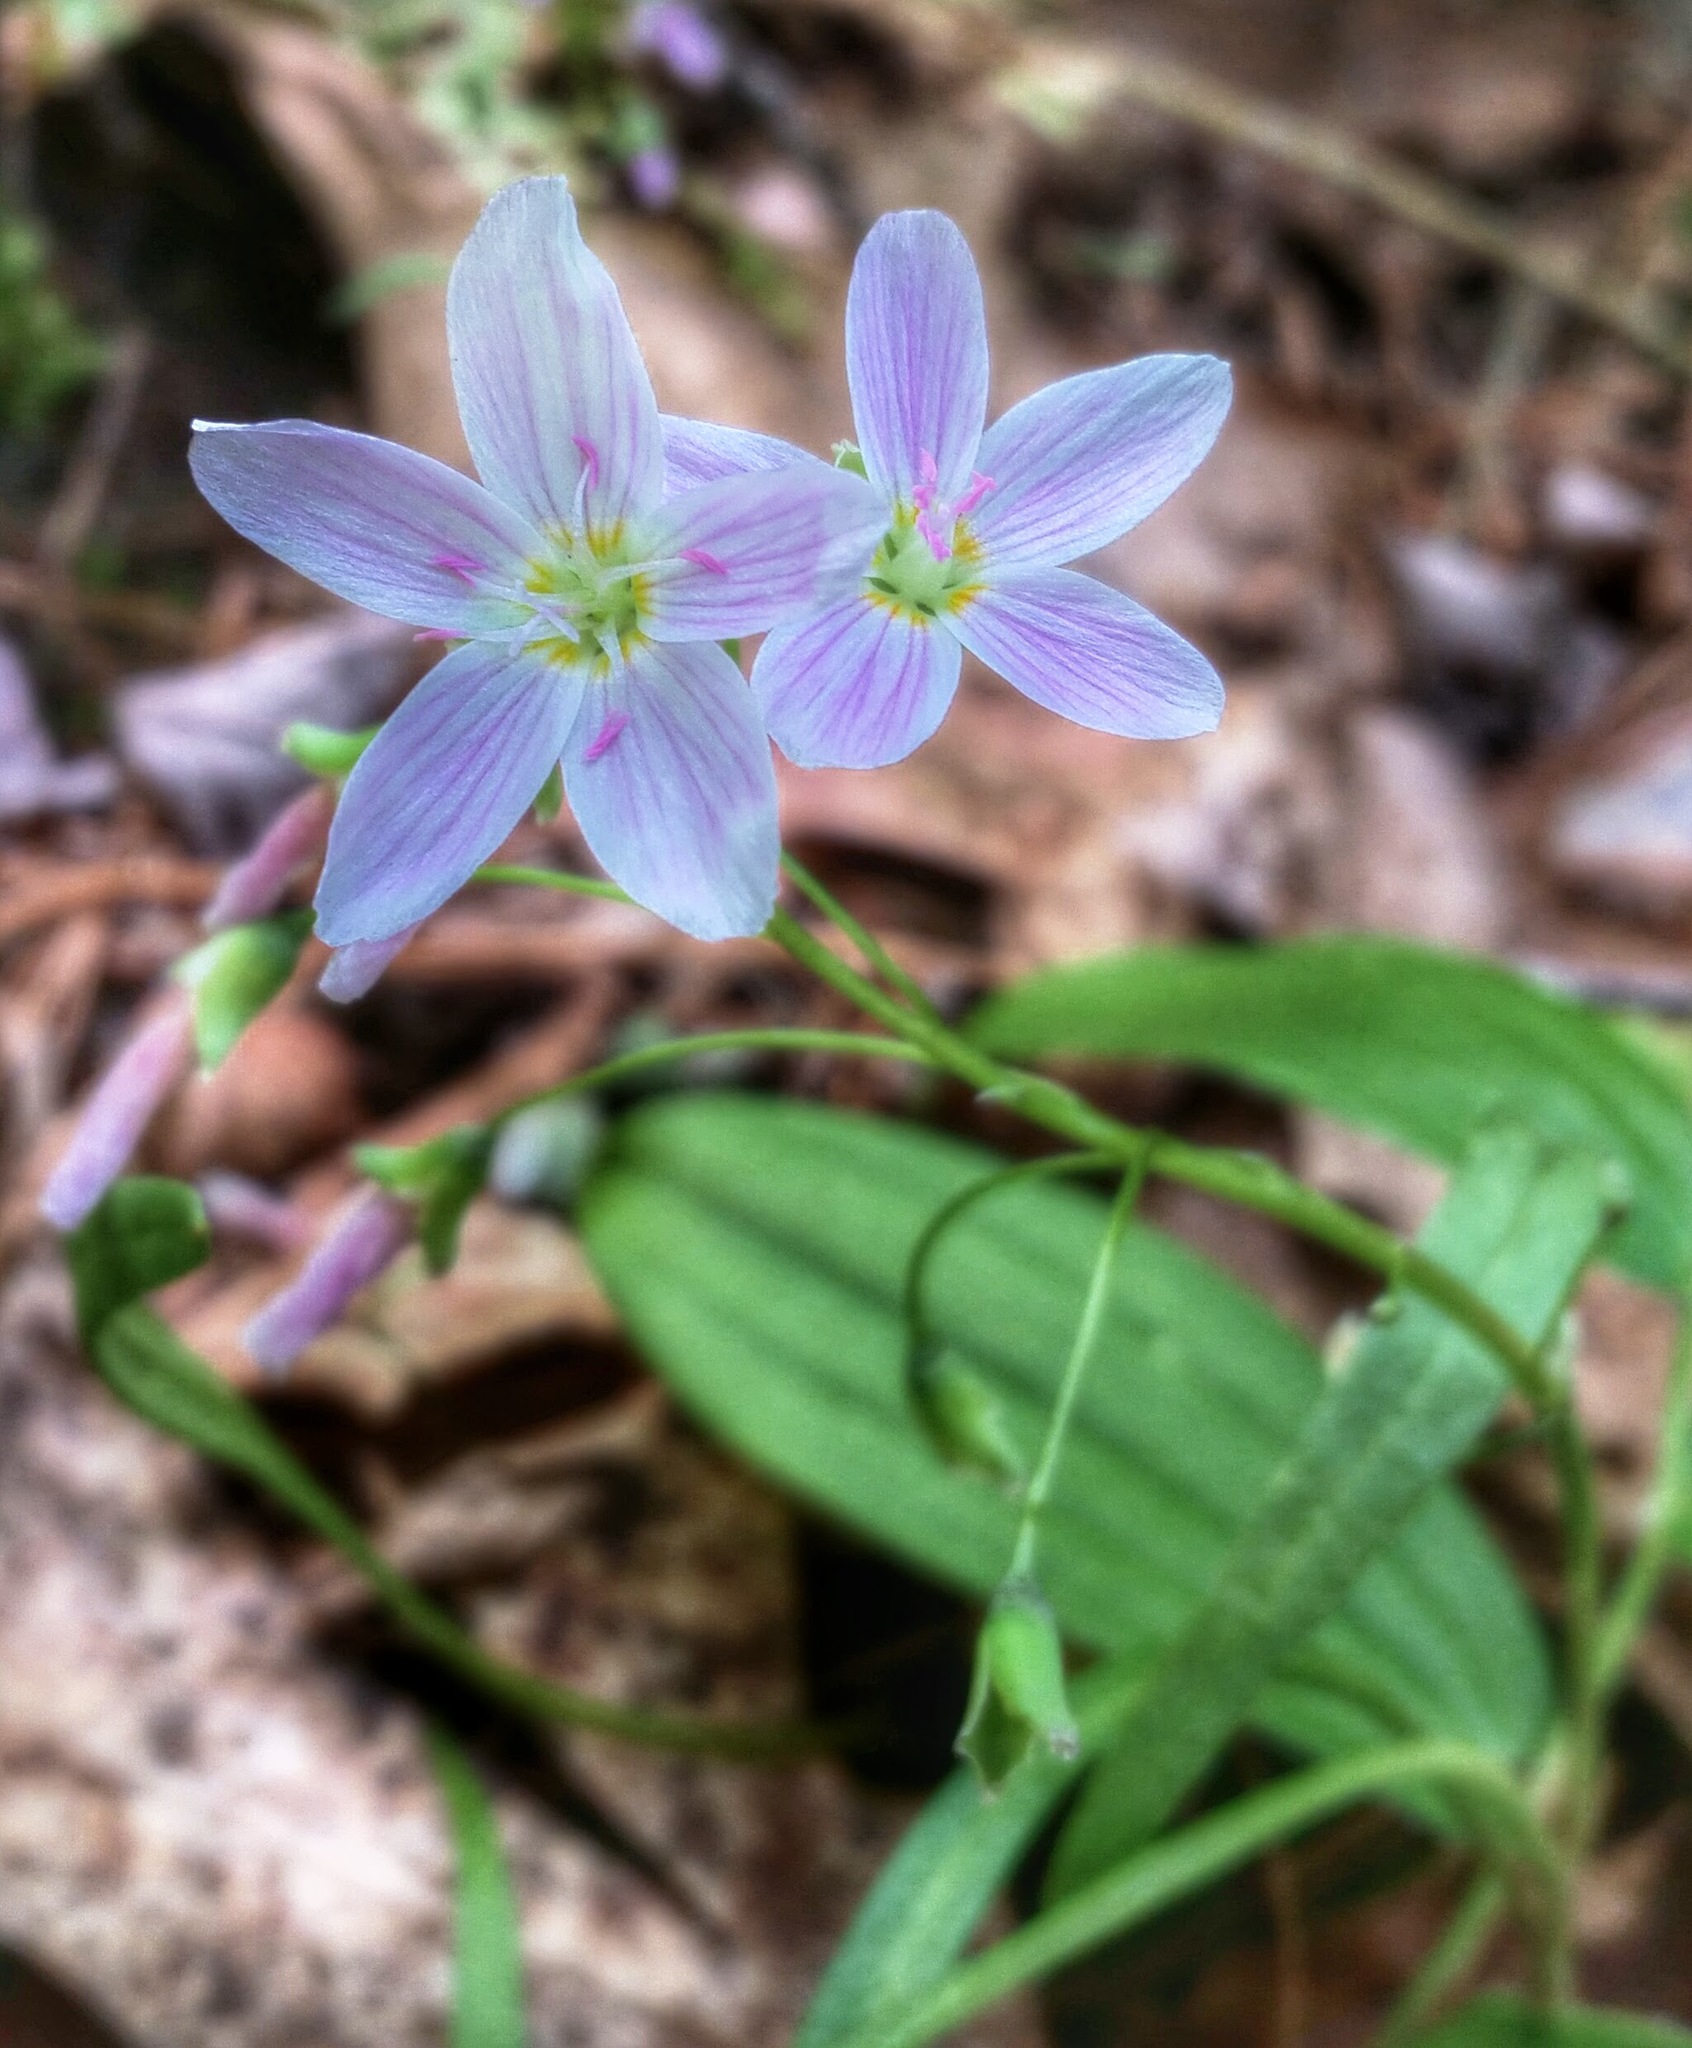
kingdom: Plantae
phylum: Tracheophyta
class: Magnoliopsida
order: Caryophyllales
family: Montiaceae
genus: Claytonia
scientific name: Claytonia virginica
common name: Virginia springbeauty
